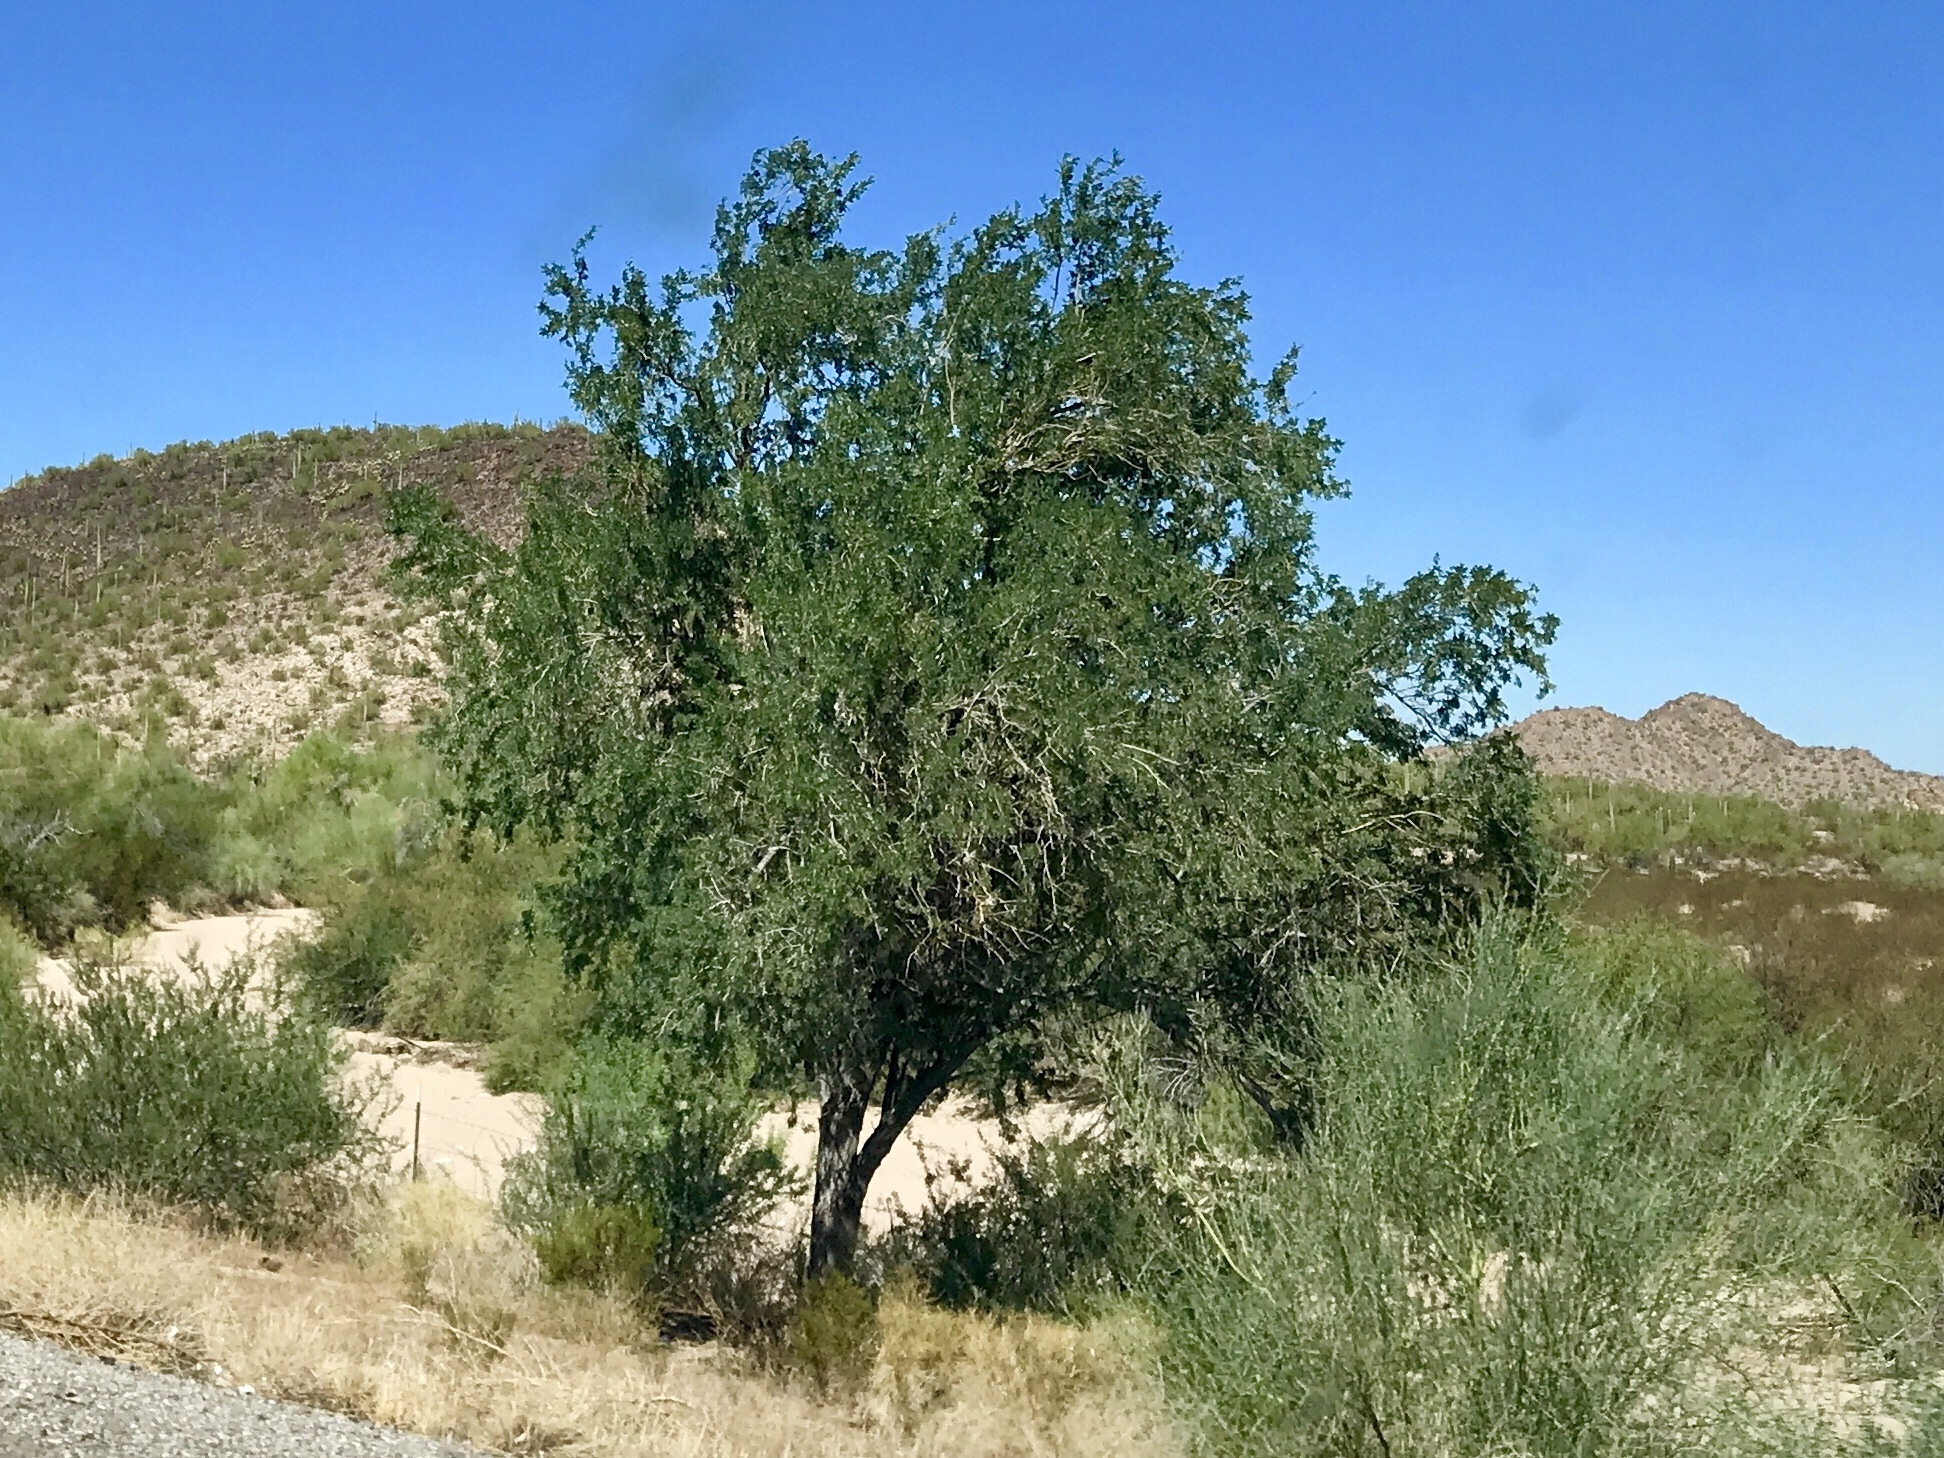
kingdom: Plantae
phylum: Tracheophyta
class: Magnoliopsida
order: Fabales
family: Fabaceae
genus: Olneya
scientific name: Olneya tesota
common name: Desert ironwood
